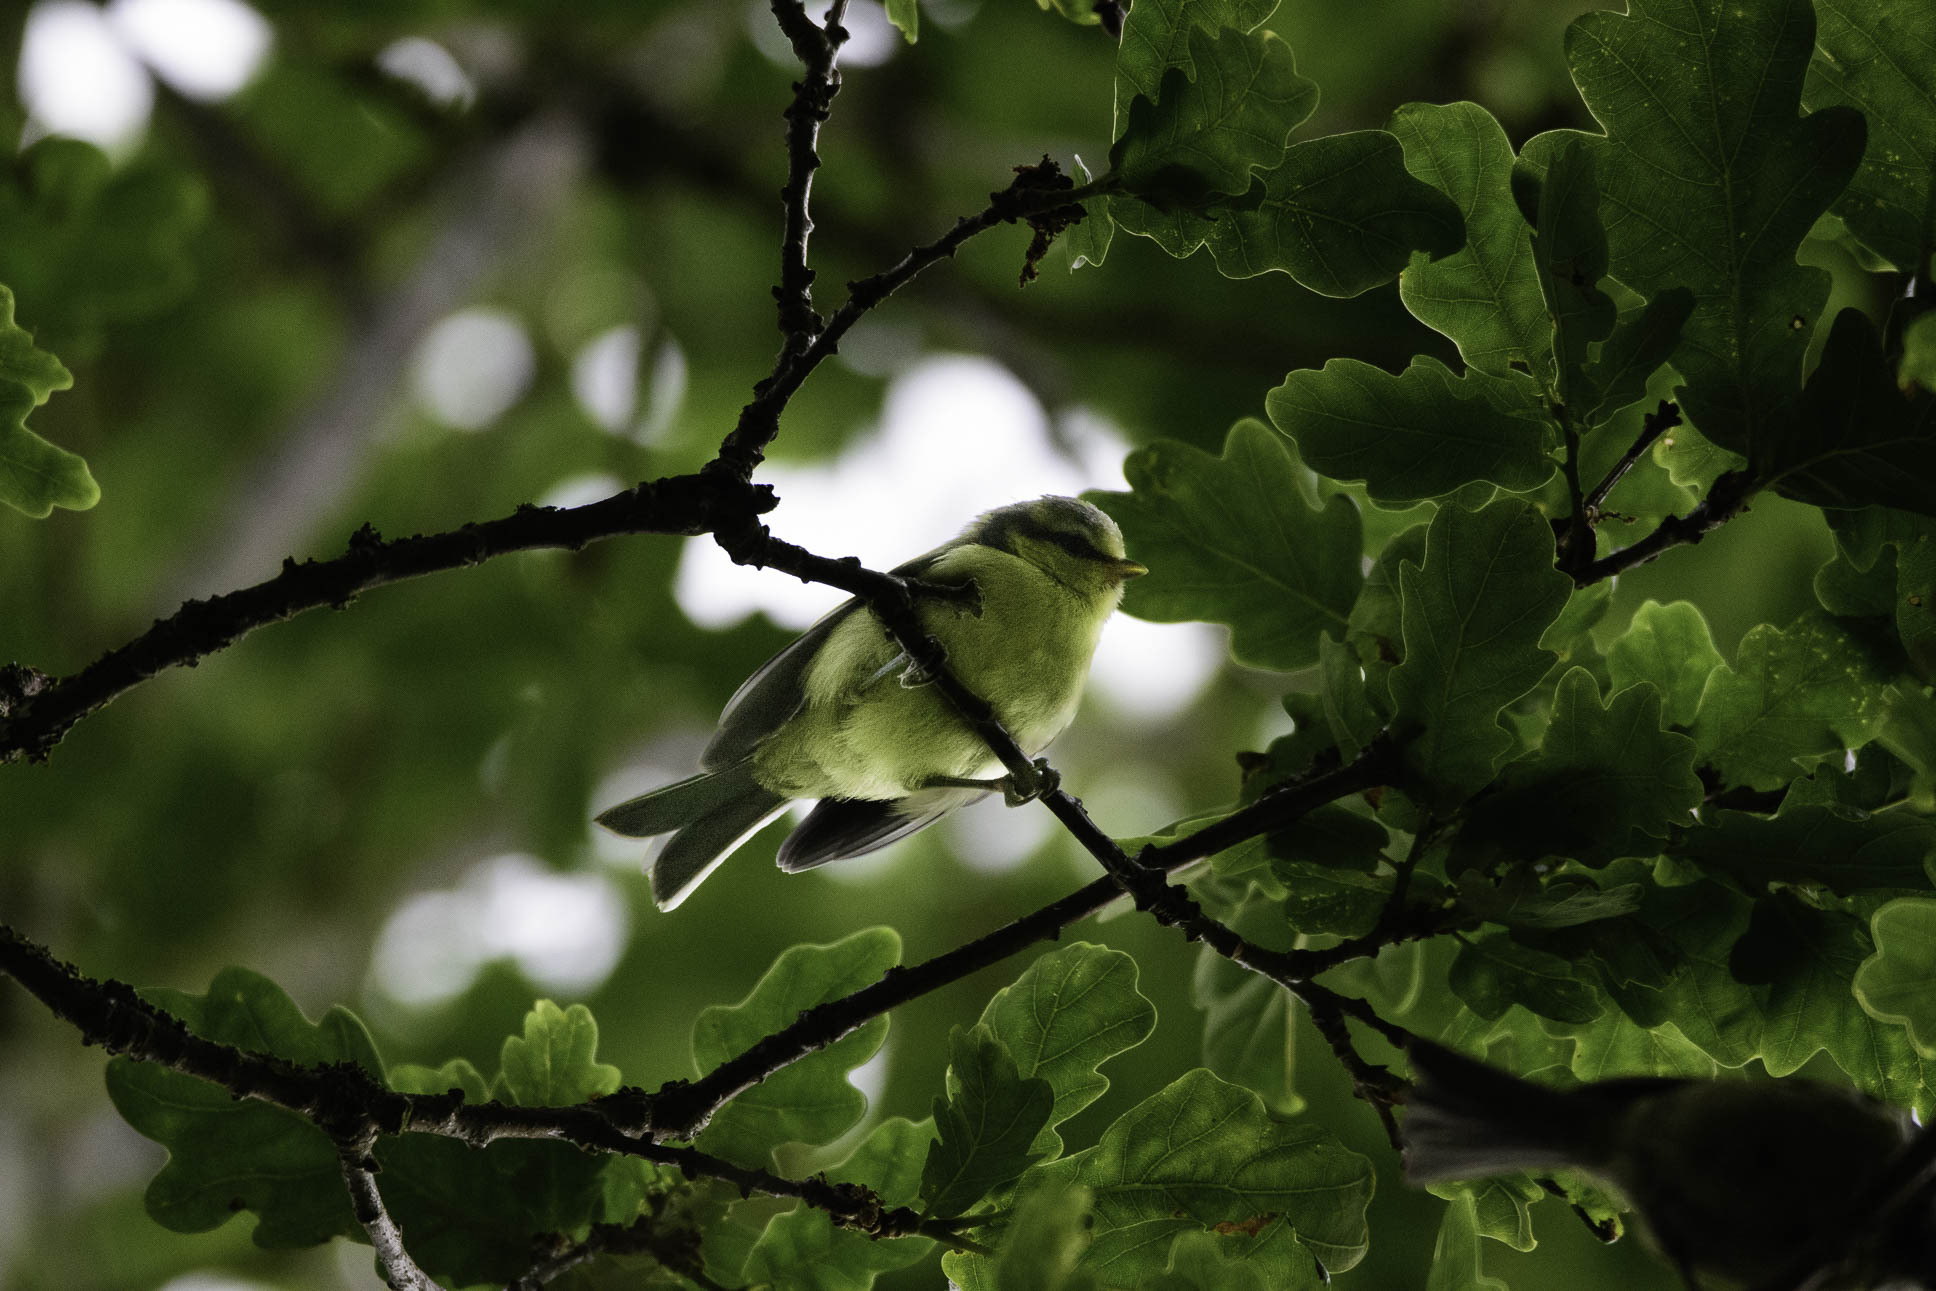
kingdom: Animalia
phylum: Chordata
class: Aves
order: Passeriformes
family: Paridae
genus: Cyanistes
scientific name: Cyanistes caeruleus
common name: Eurasian blue tit
